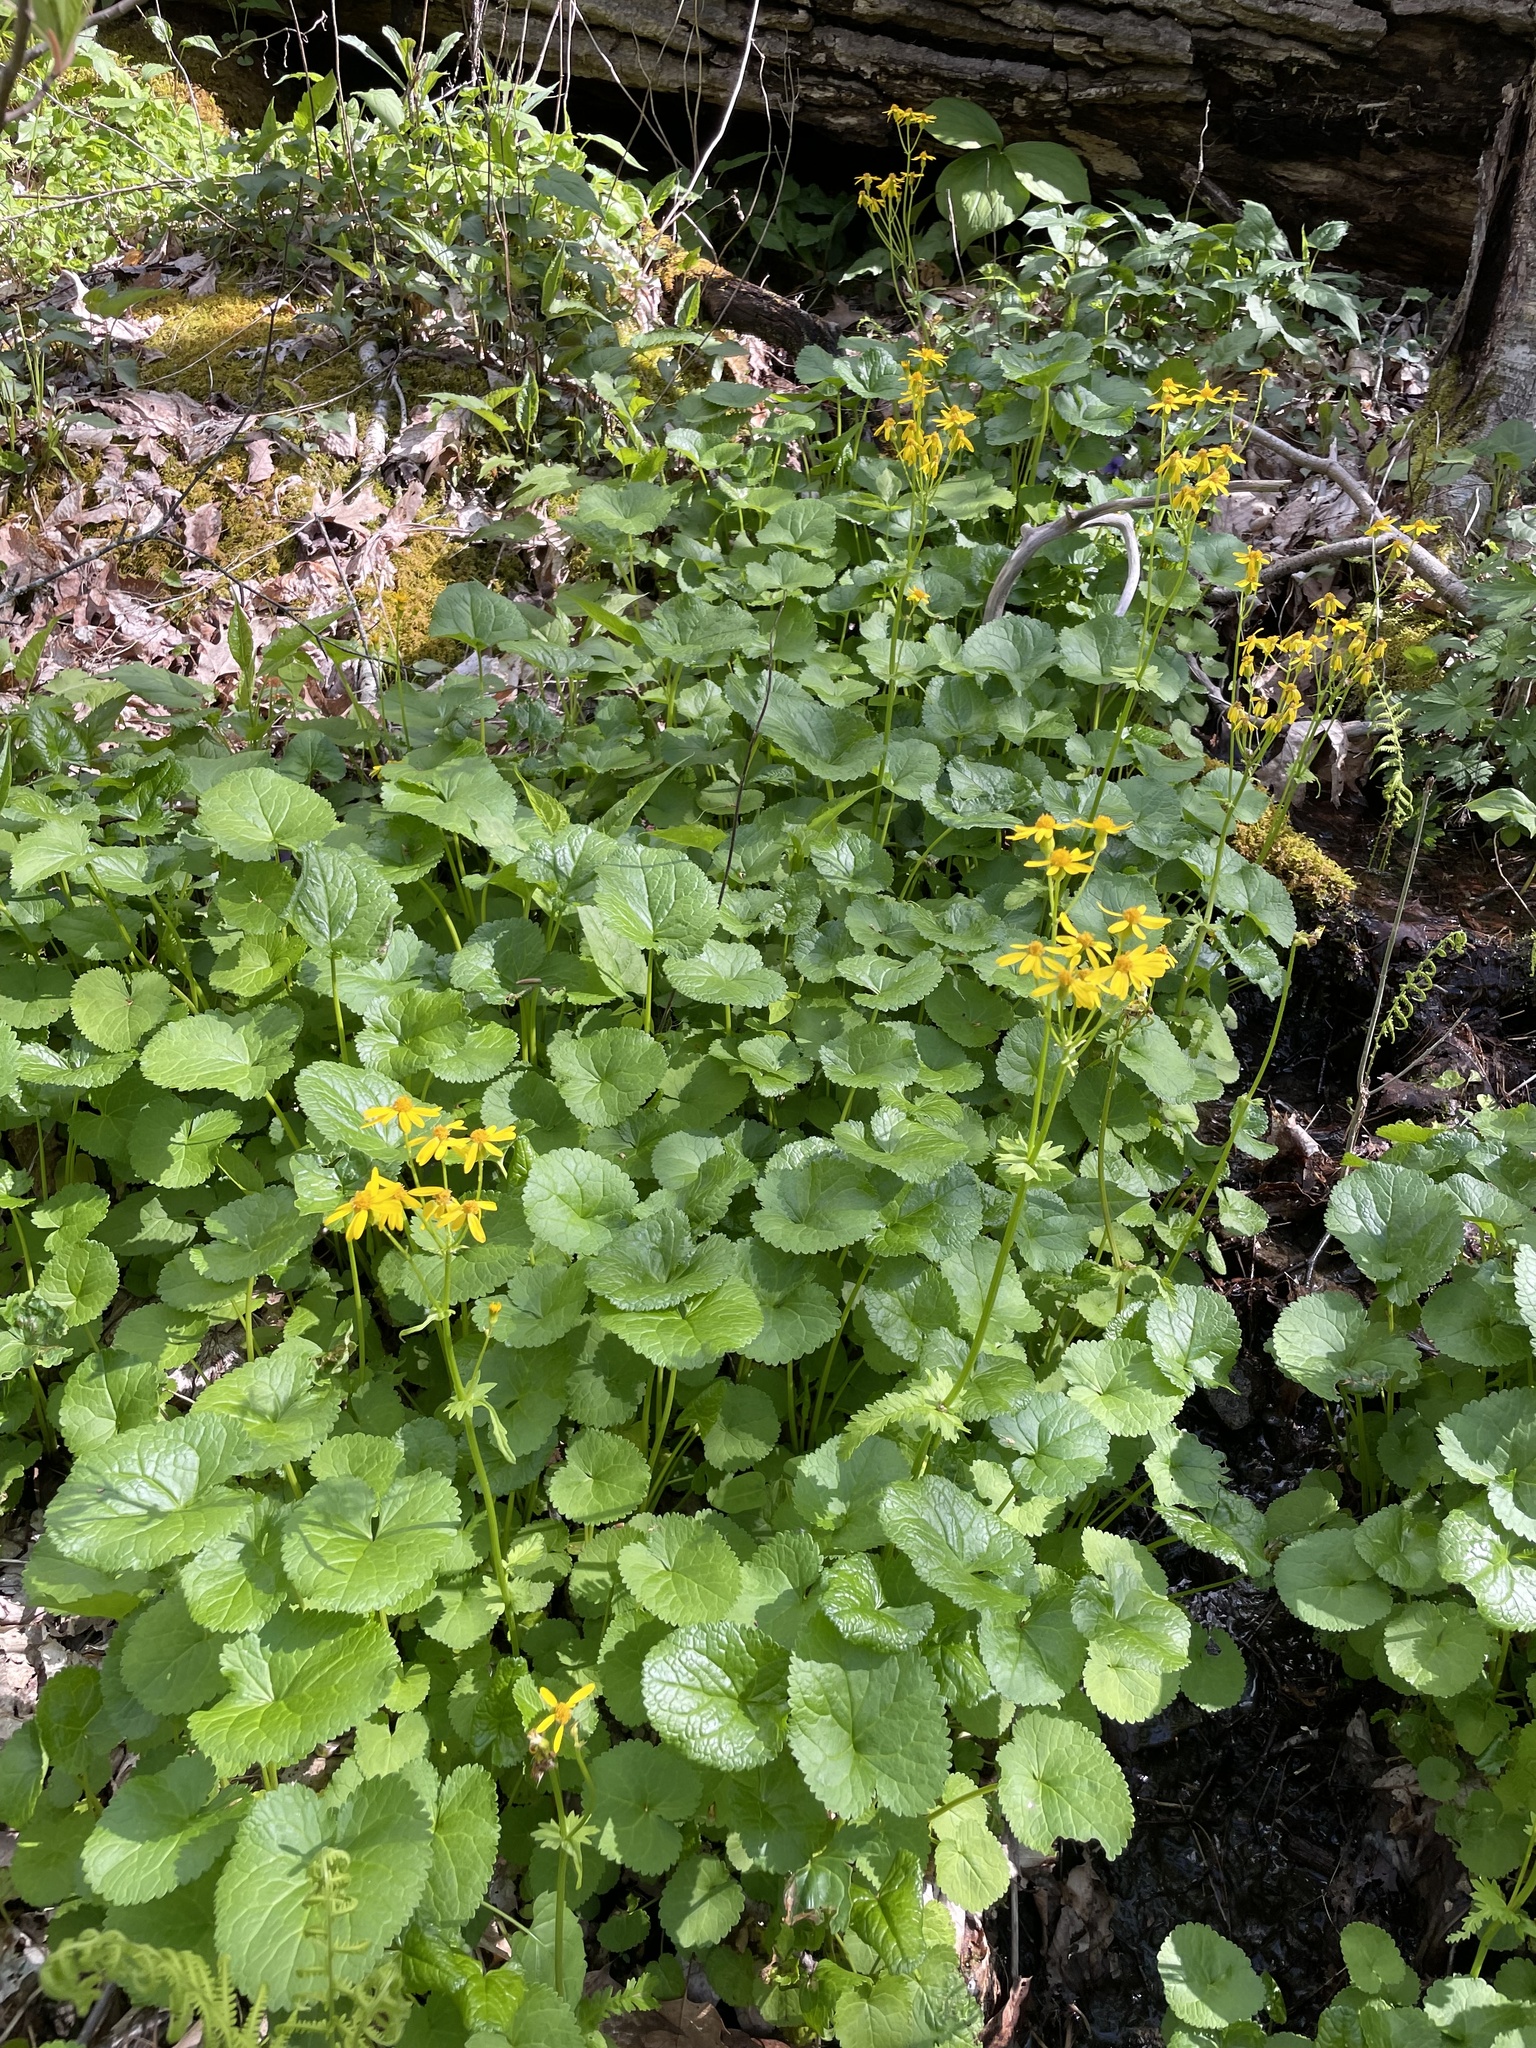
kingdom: Plantae
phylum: Tracheophyta
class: Magnoliopsida
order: Asterales
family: Asteraceae
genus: Packera
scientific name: Packera aurea
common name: Golden groundsel
